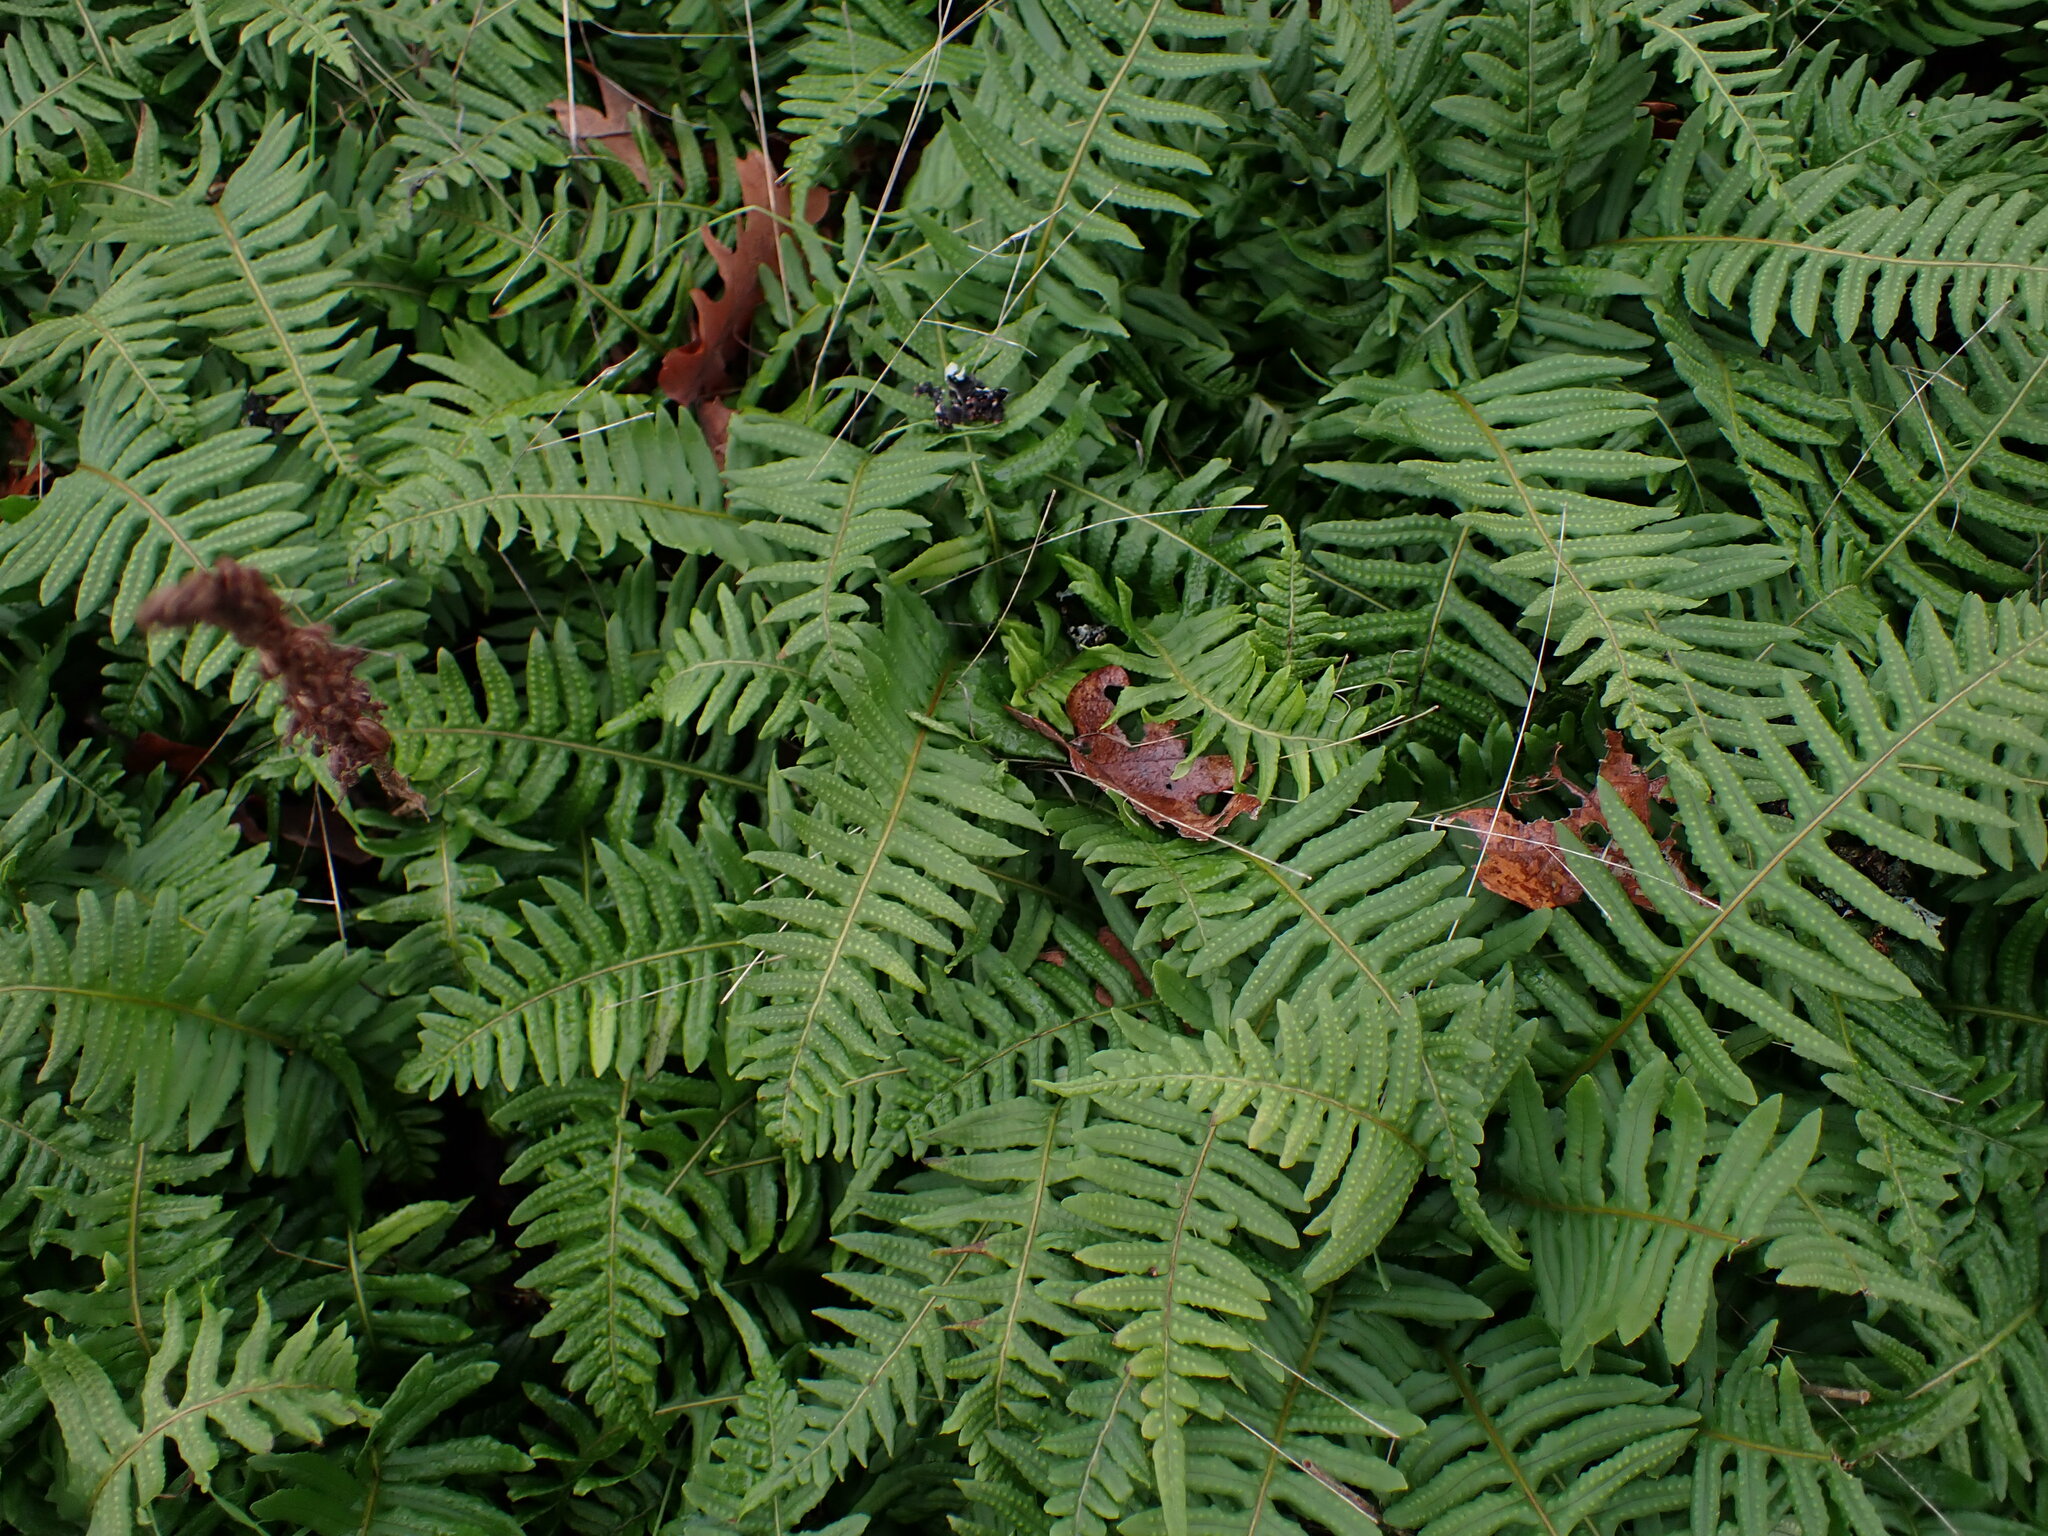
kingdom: Plantae
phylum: Tracheophyta
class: Polypodiopsida
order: Polypodiales
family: Polypodiaceae
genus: Polypodium
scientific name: Polypodium glycyrrhiza
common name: Licorice fern
